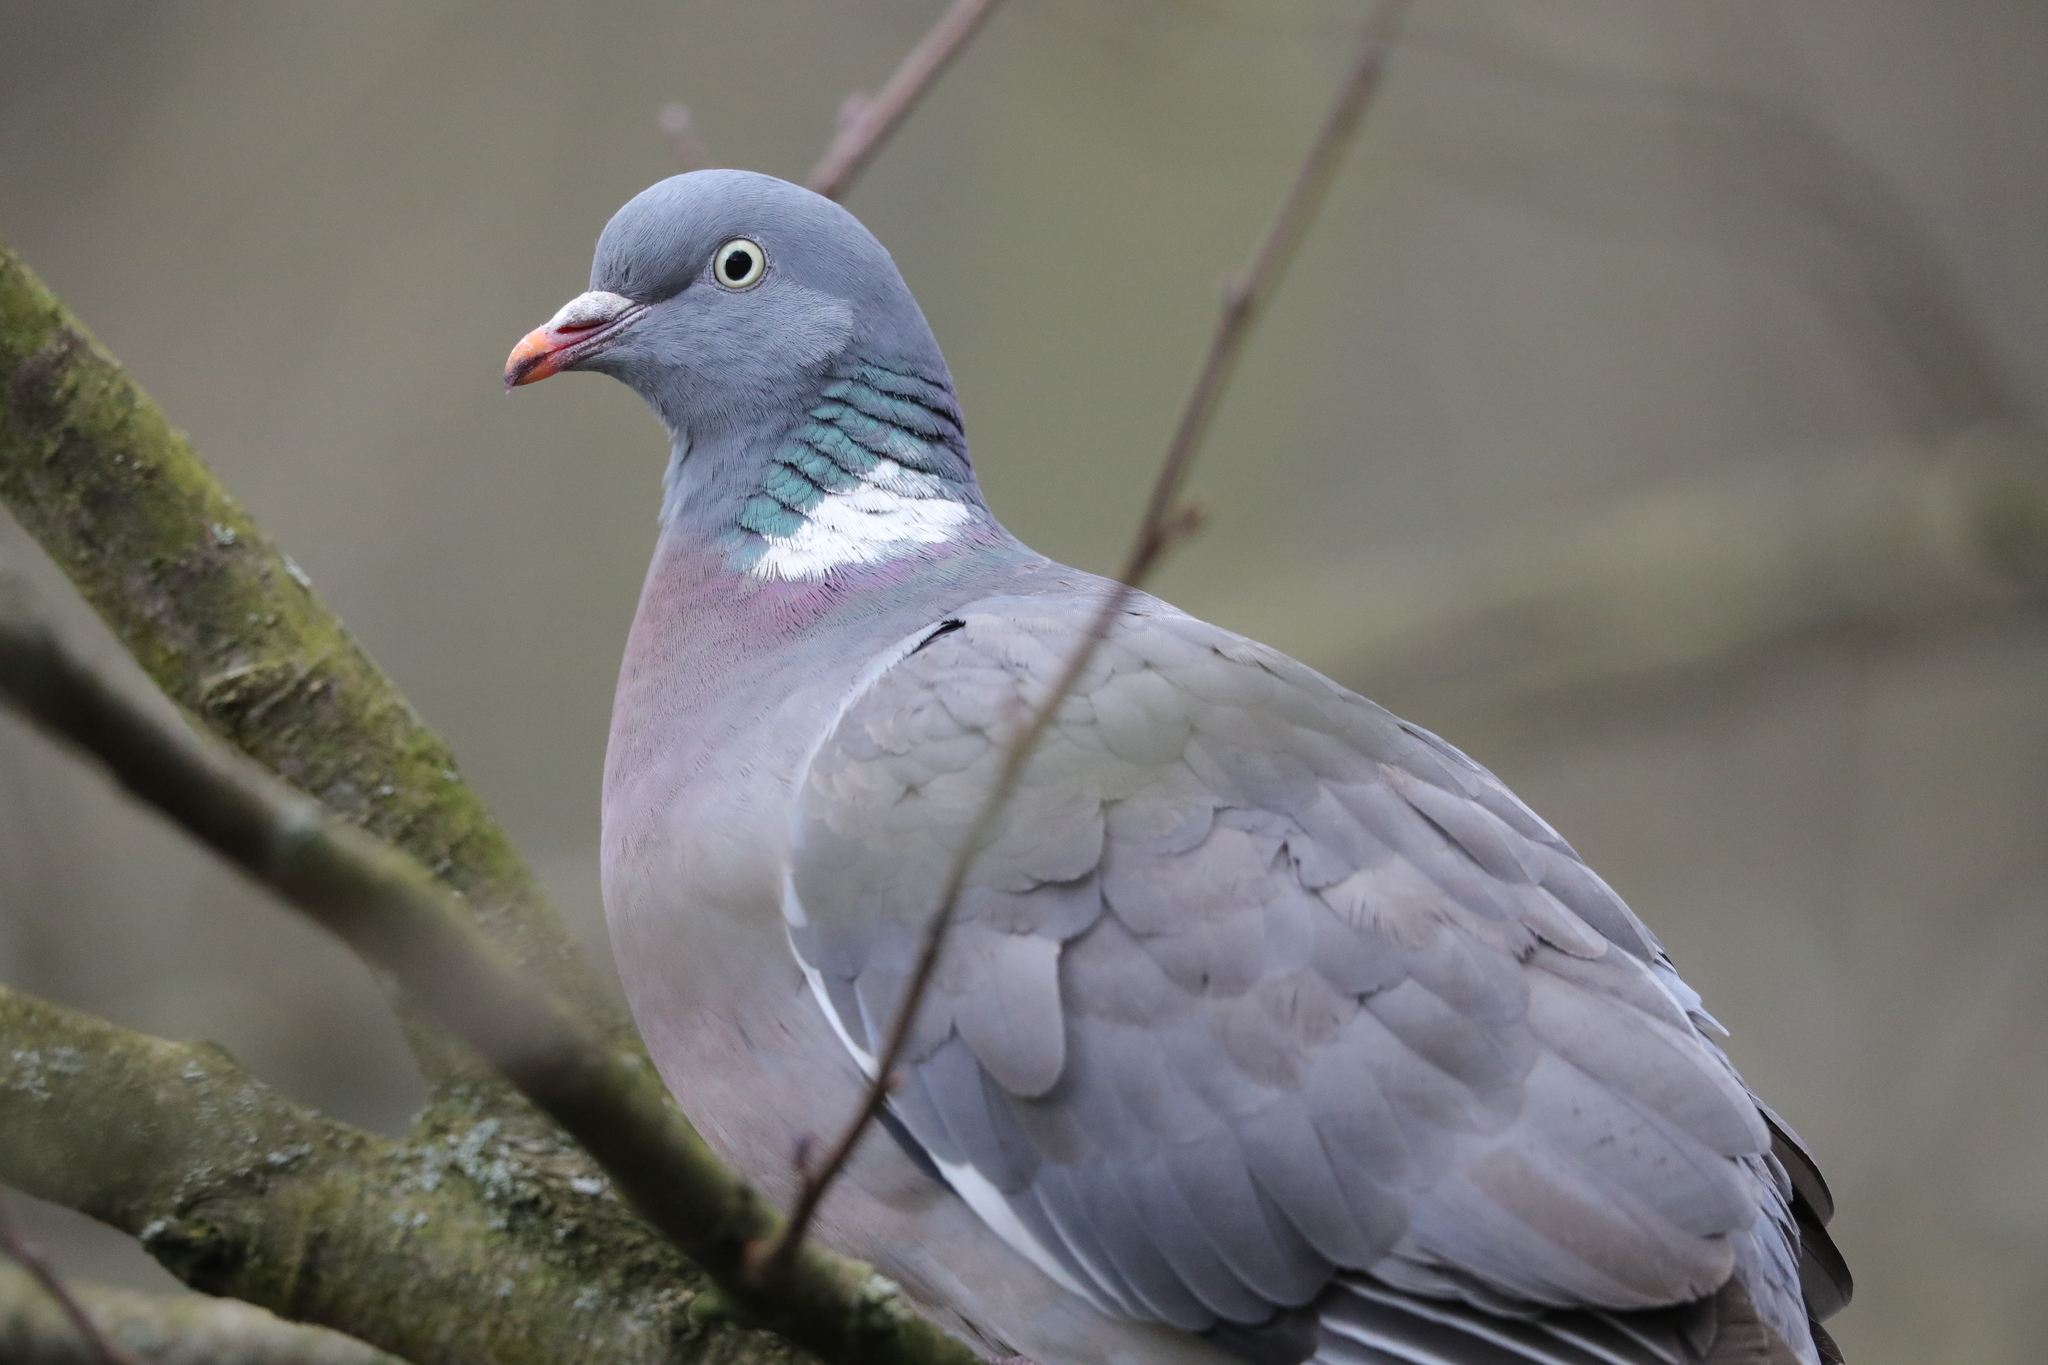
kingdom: Animalia
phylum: Chordata
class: Aves
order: Columbiformes
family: Columbidae
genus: Columba
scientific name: Columba palumbus
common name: Common wood pigeon
